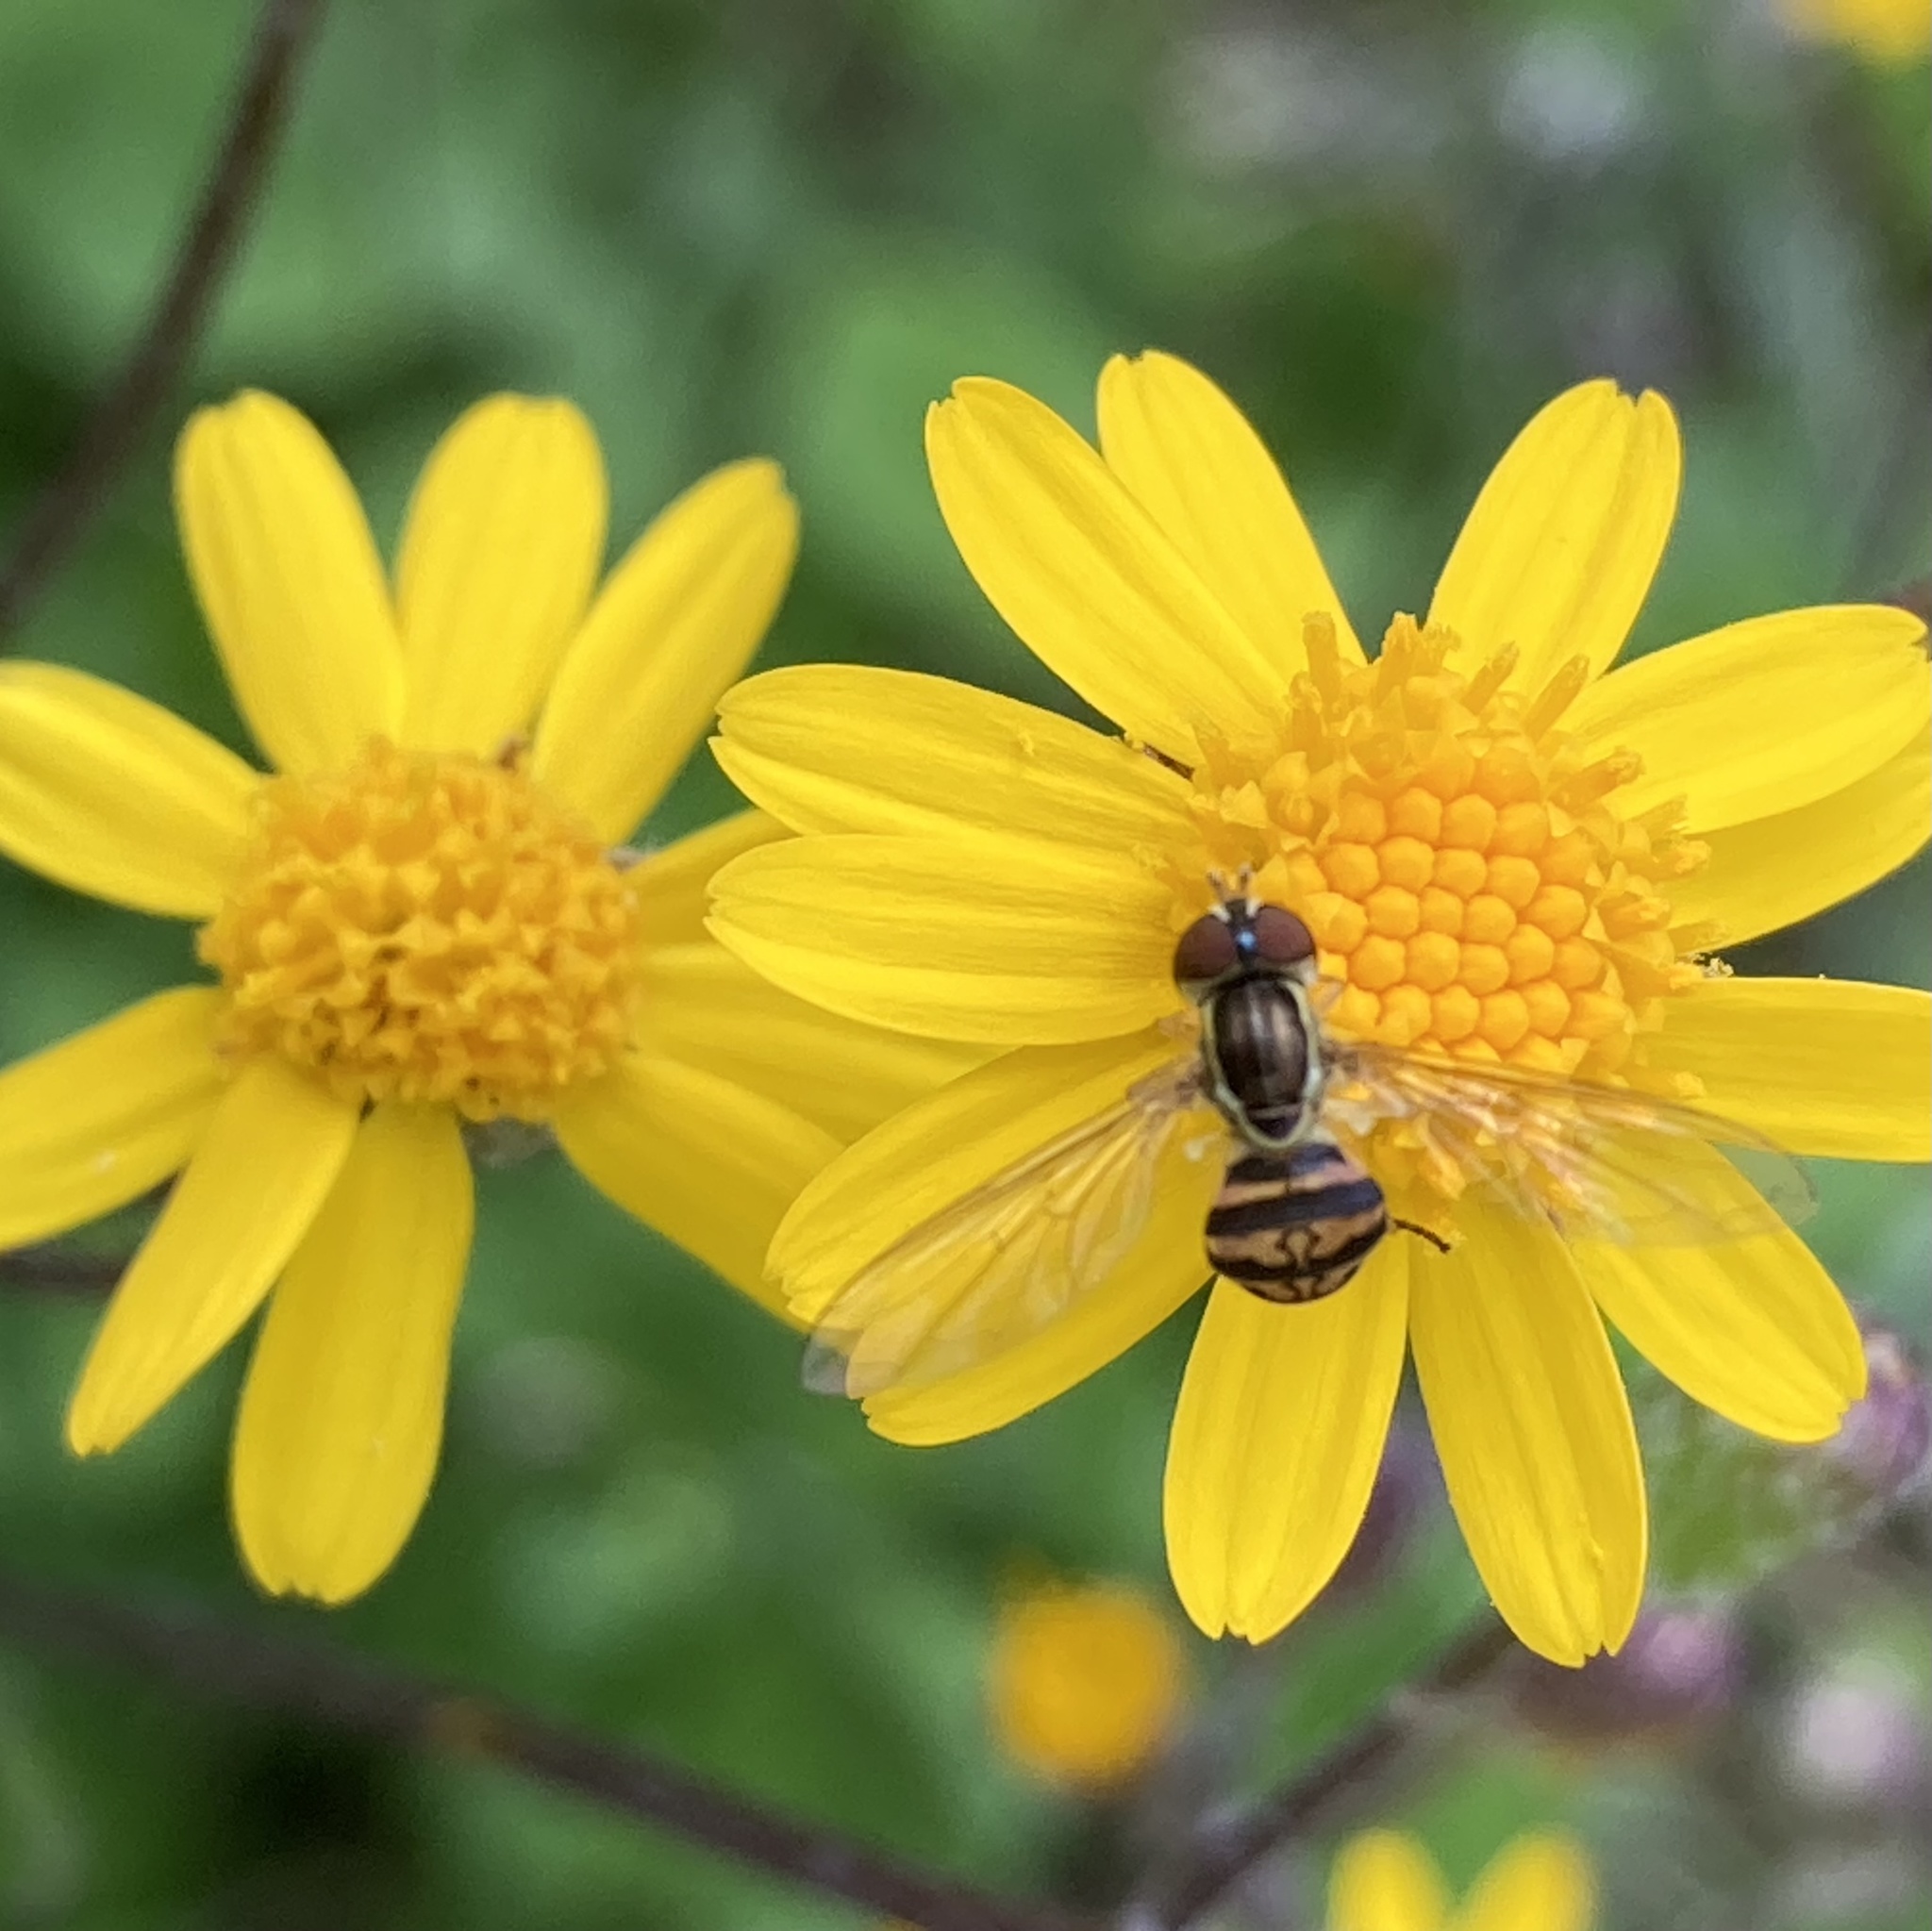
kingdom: Animalia
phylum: Arthropoda
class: Insecta
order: Diptera
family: Syrphidae
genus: Toxomerus
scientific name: Toxomerus geminatus
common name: Eastern calligrapher
